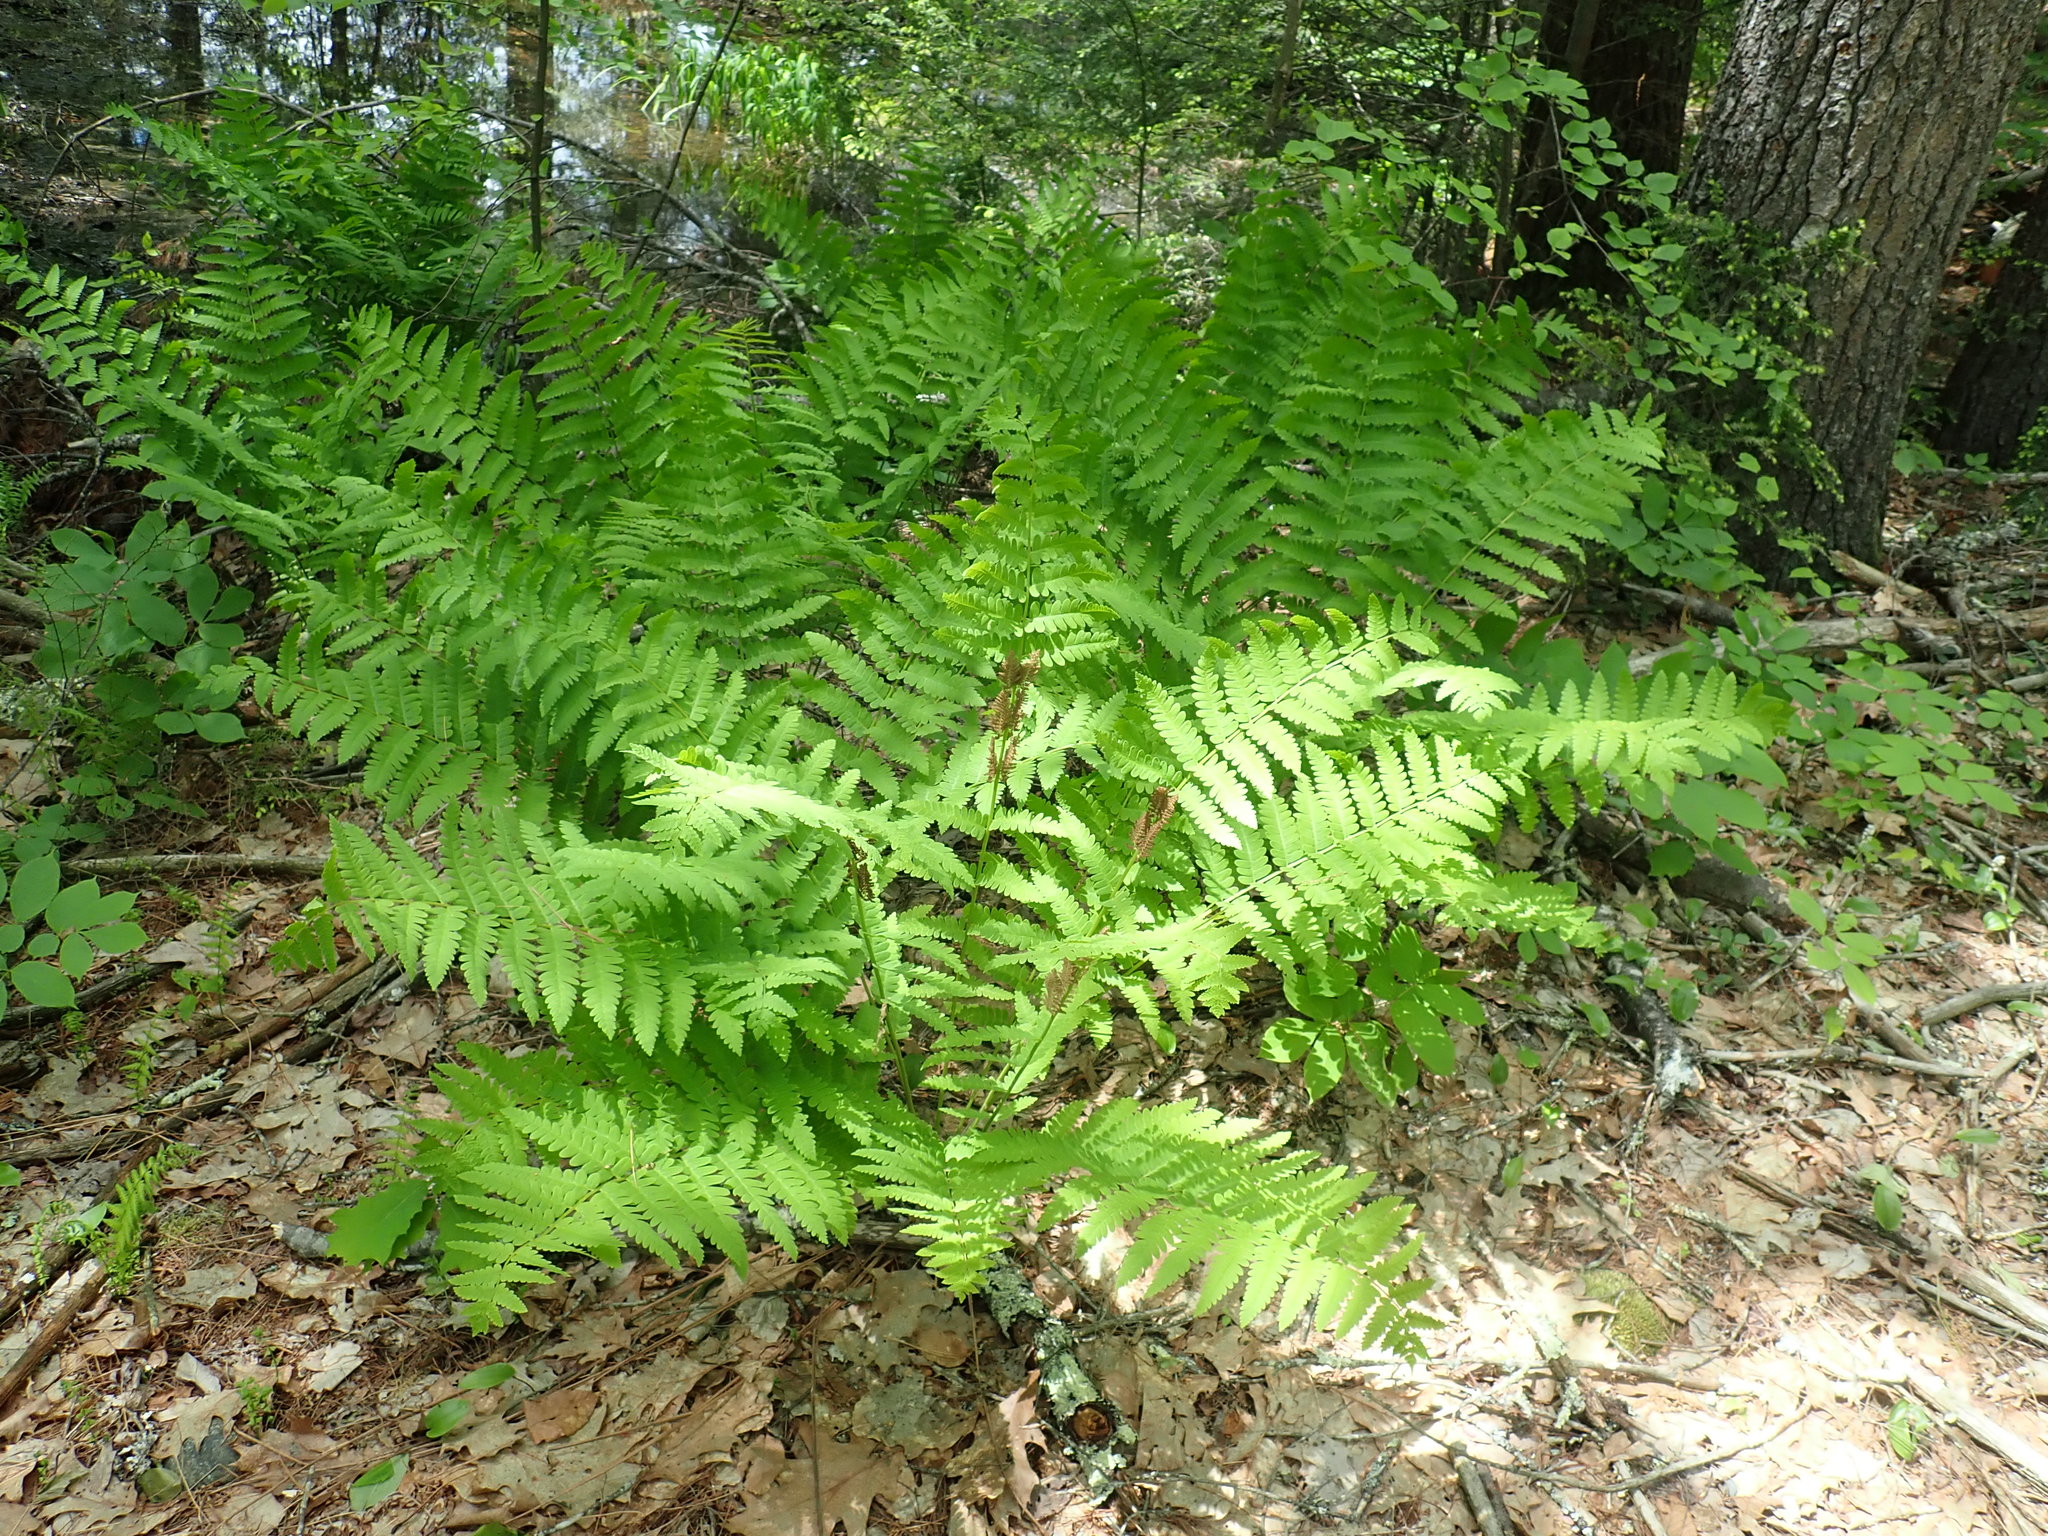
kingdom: Plantae
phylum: Tracheophyta
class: Polypodiopsida
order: Osmundales
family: Osmundaceae
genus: Claytosmunda
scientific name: Claytosmunda claytoniana
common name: Clayton's fern
